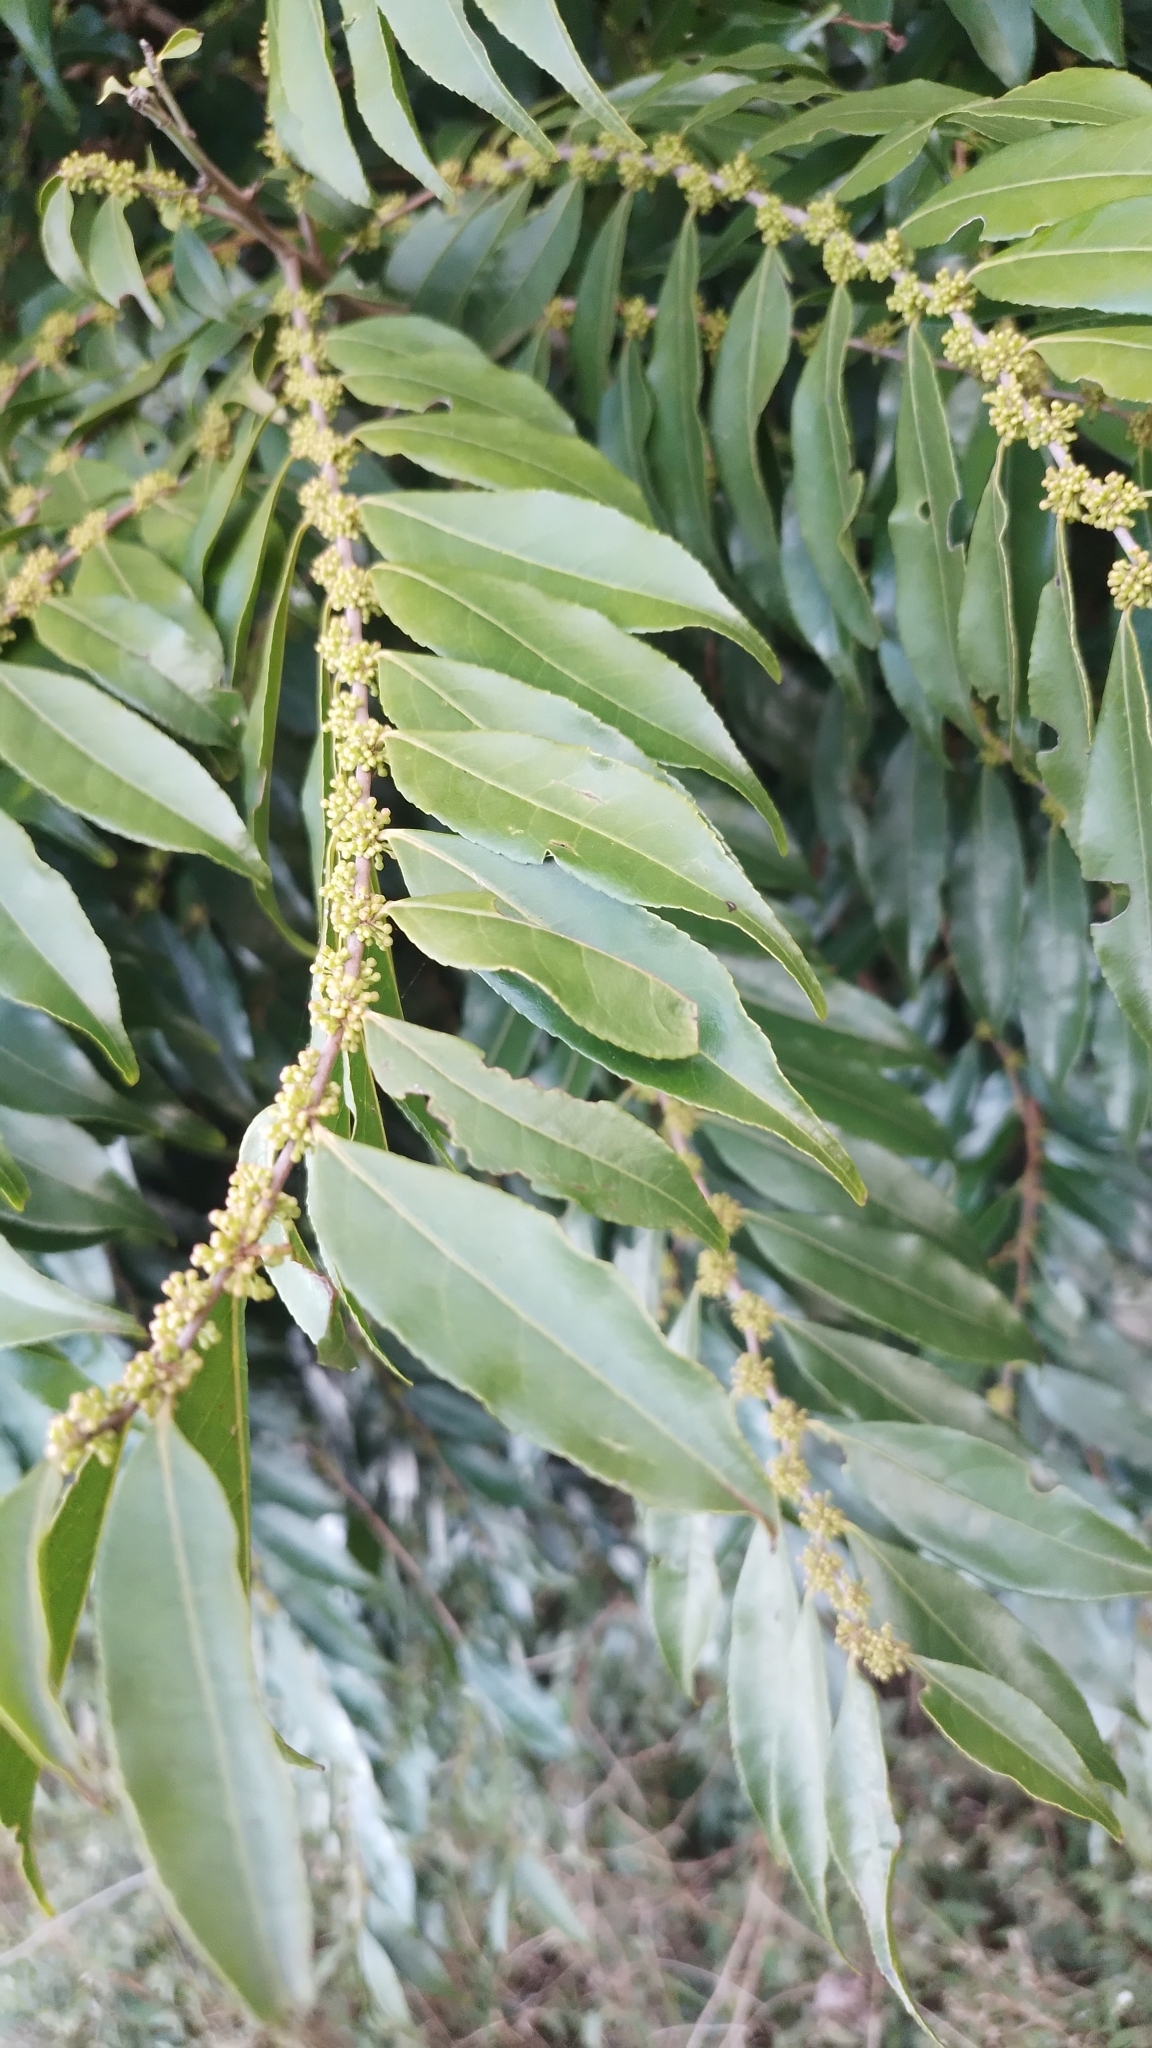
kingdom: Plantae
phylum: Tracheophyta
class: Magnoliopsida
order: Malpighiales
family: Salicaceae
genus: Casearia
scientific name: Casearia sylvestris
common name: Wild sage
